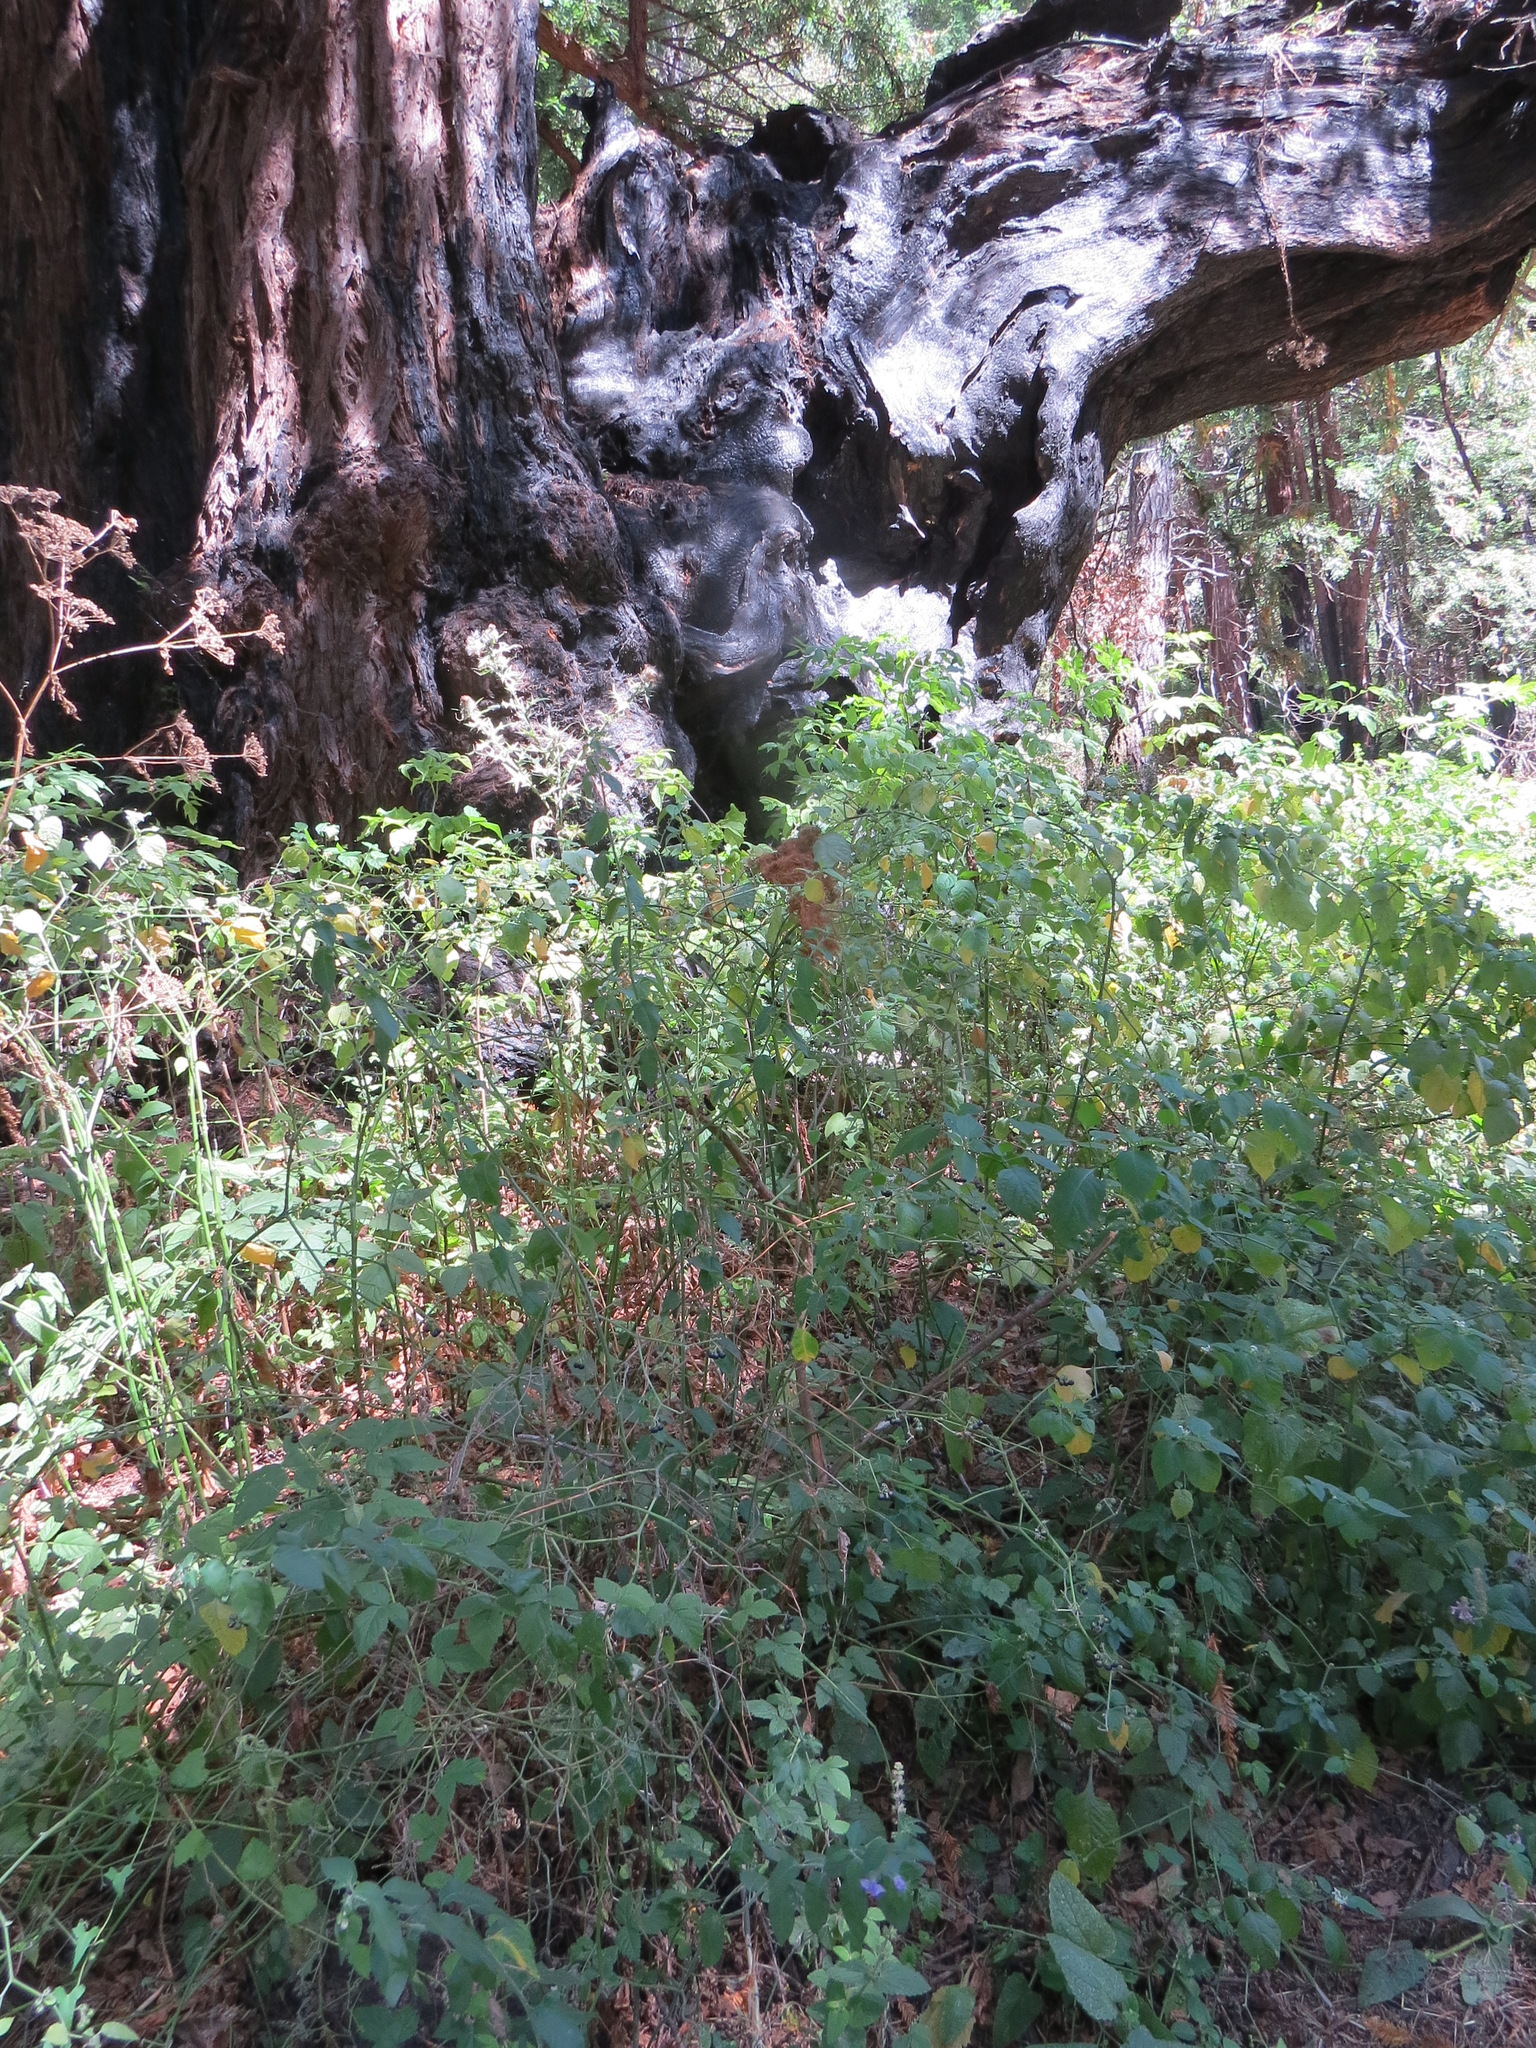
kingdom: Plantae
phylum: Tracheophyta
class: Magnoliopsida
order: Solanales
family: Solanaceae
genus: Solanum
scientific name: Solanum umbelliferum
